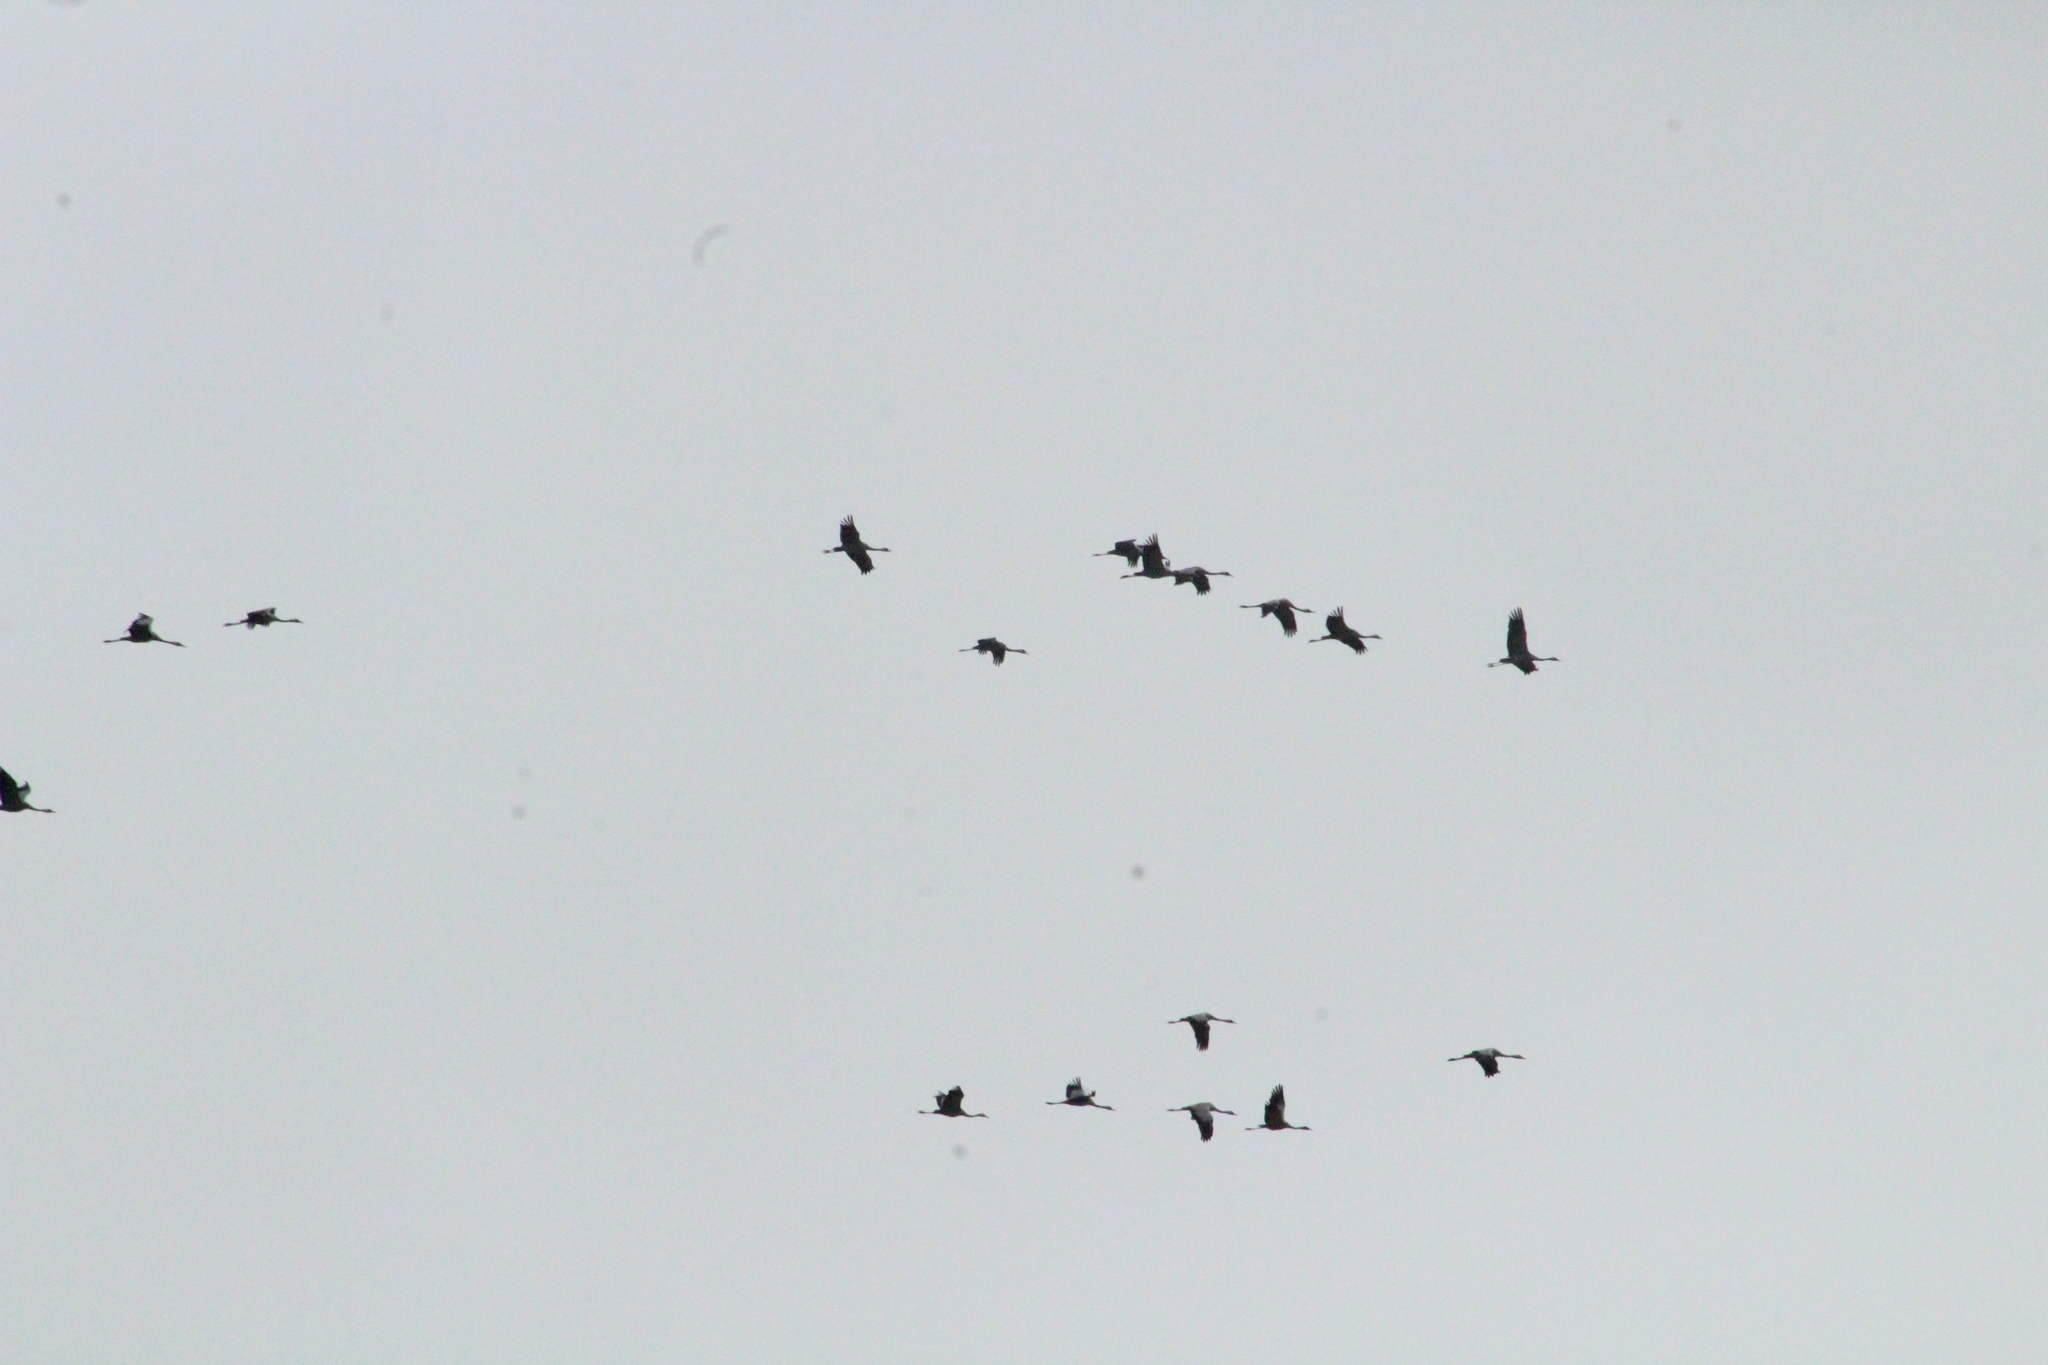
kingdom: Animalia
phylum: Chordata
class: Aves
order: Gruiformes
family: Gruidae
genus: Grus
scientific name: Grus grus
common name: Common crane
